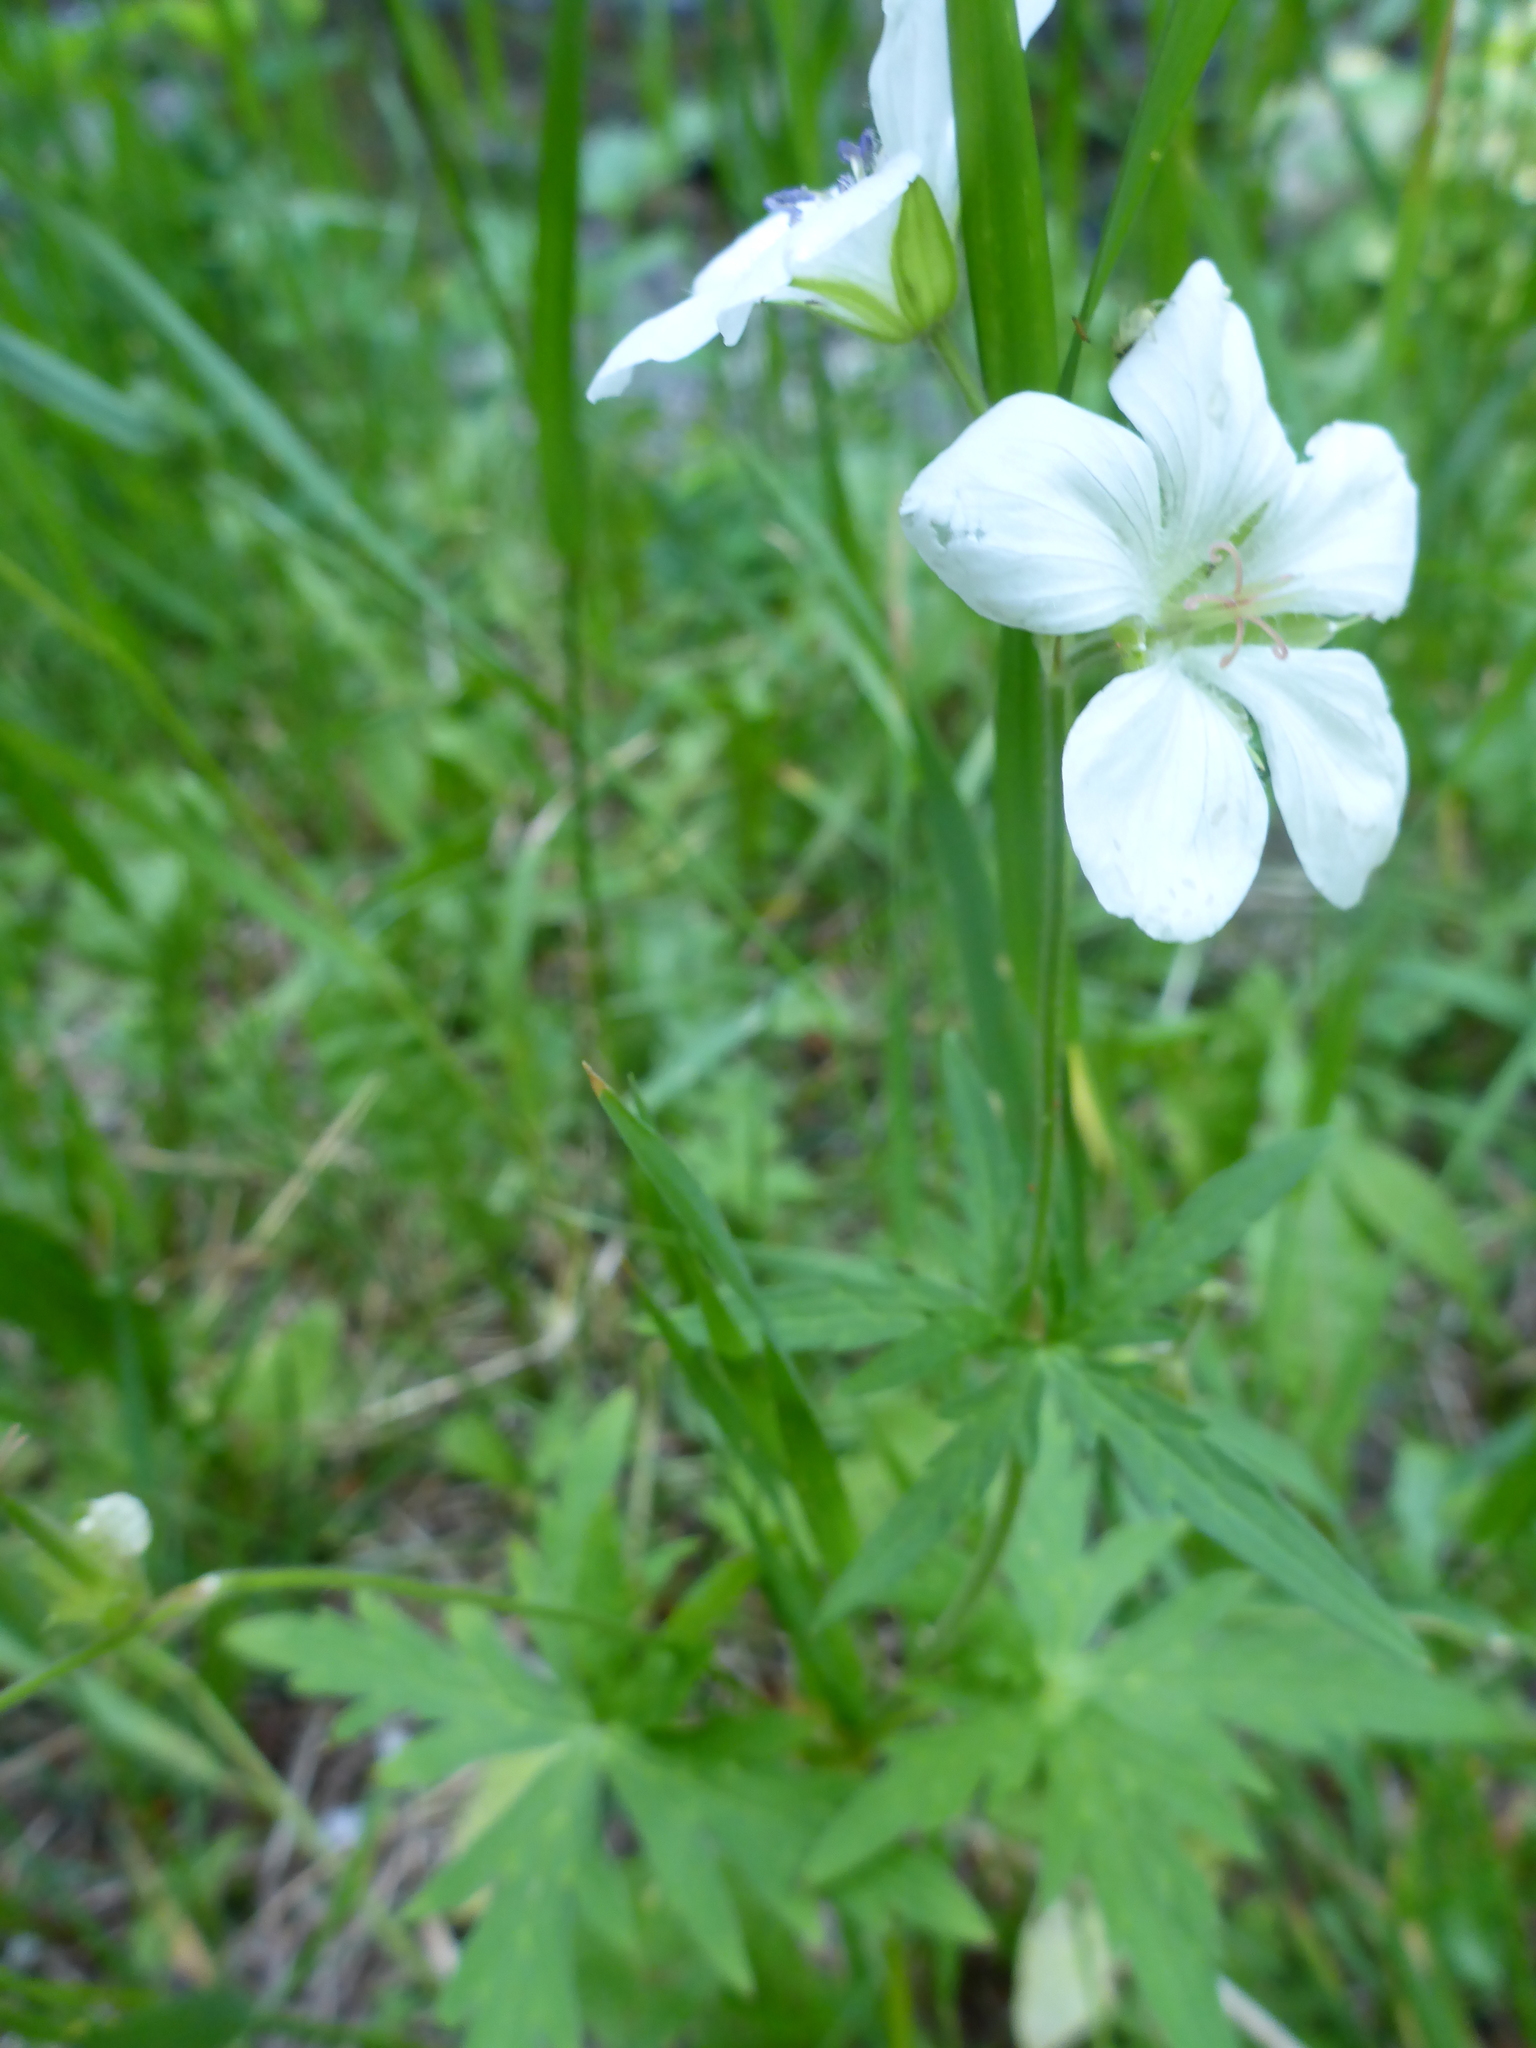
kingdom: Plantae
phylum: Tracheophyta
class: Magnoliopsida
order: Geraniales
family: Geraniaceae
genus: Geranium
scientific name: Geranium richardsonii
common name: Richardson's crane's-bill
